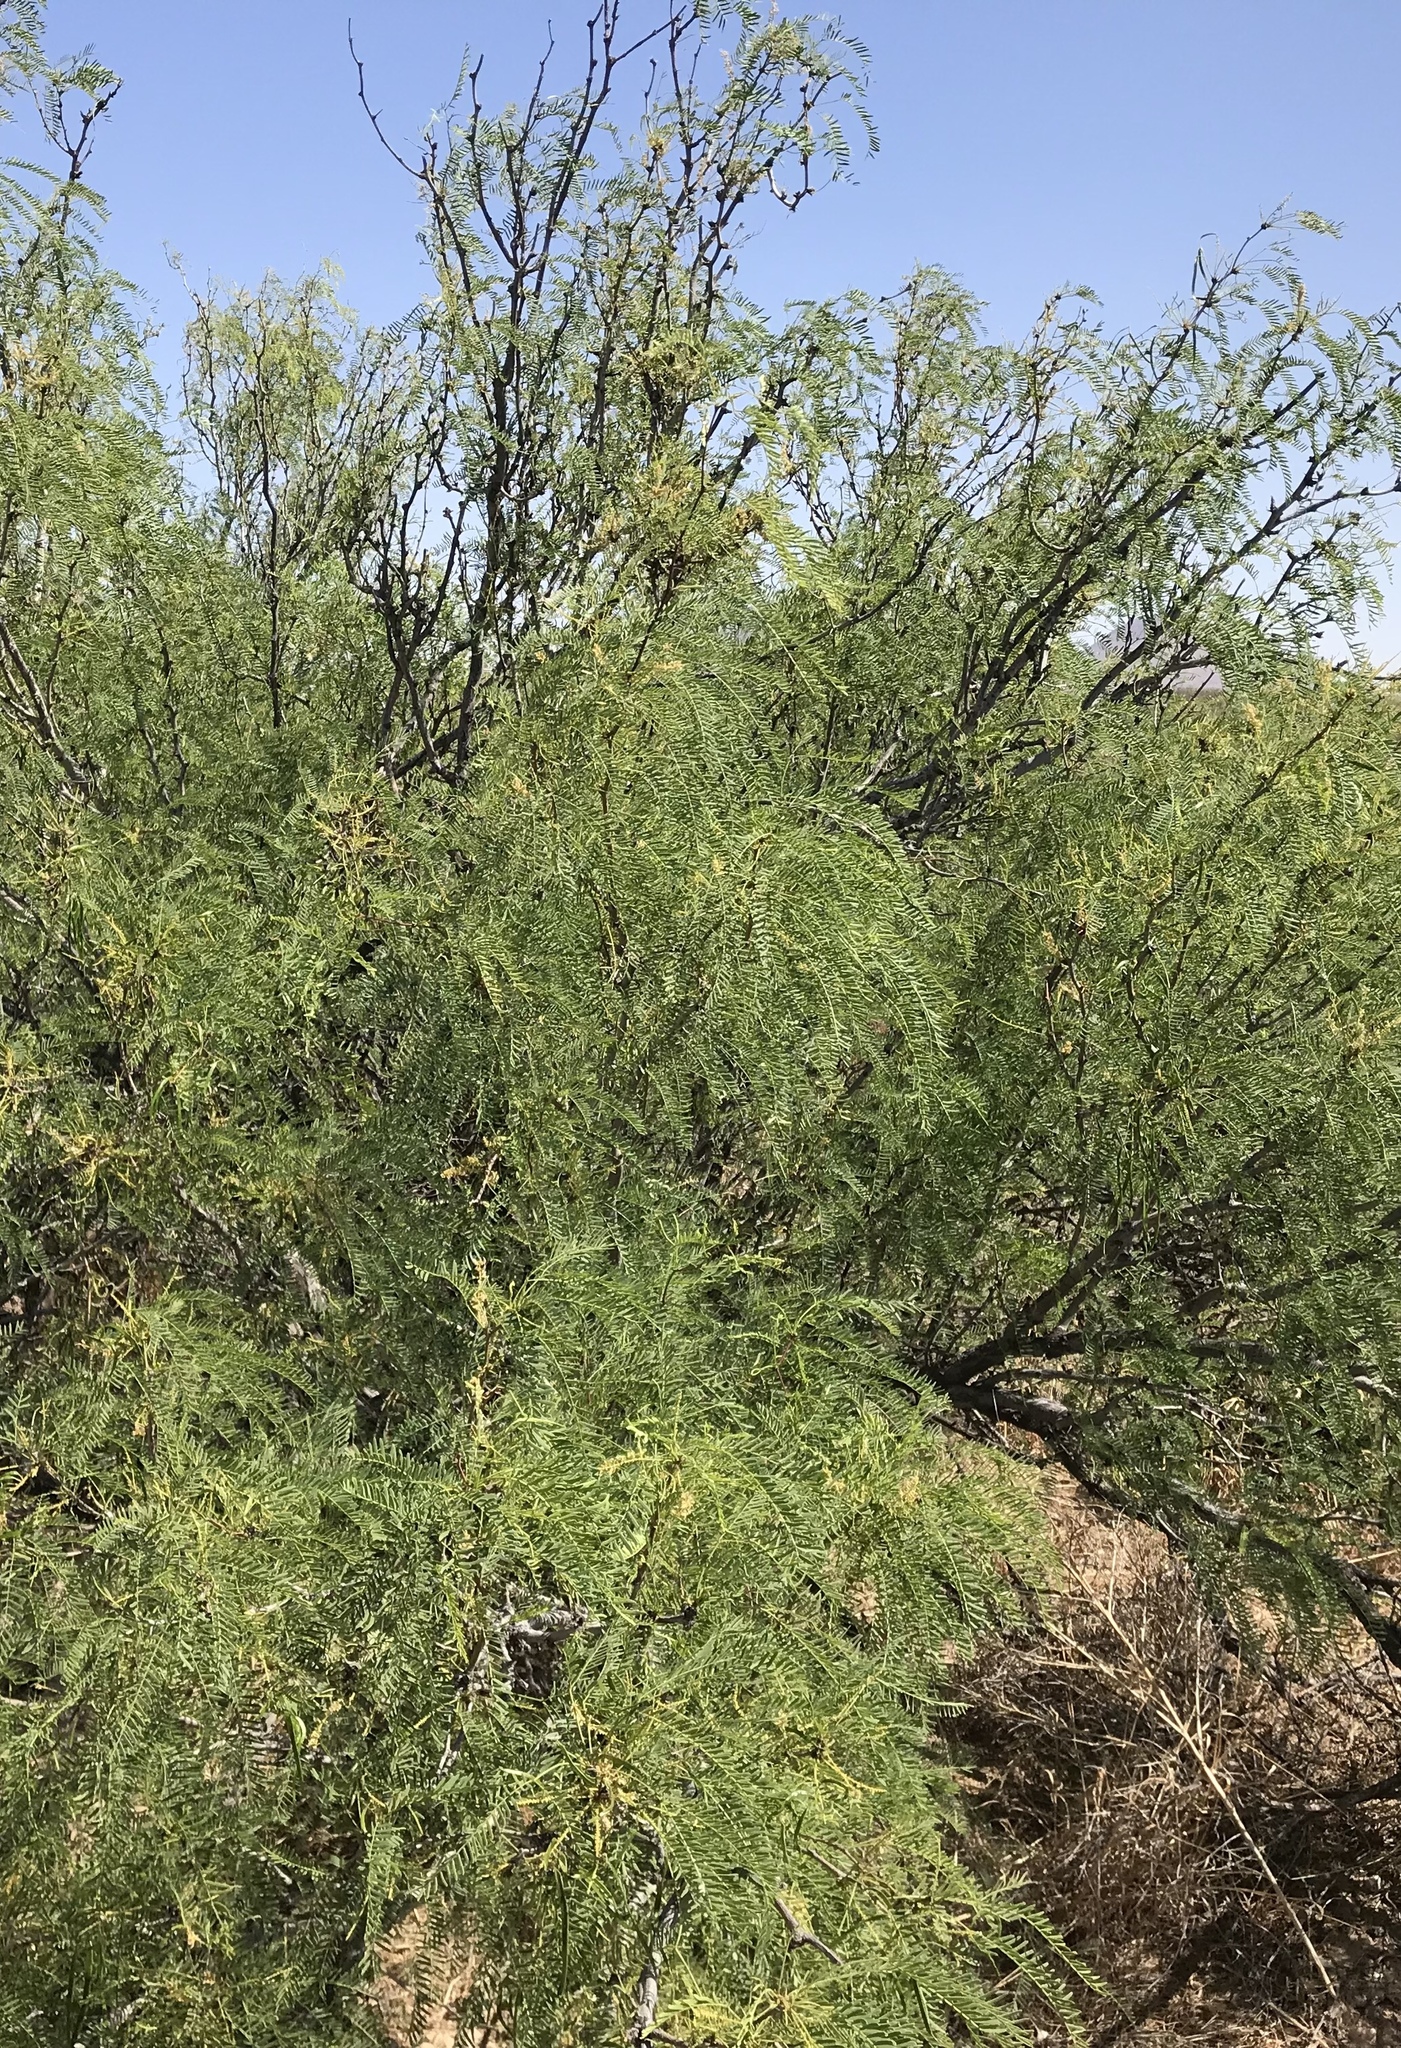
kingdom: Plantae
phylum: Tracheophyta
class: Magnoliopsida
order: Fabales
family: Fabaceae
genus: Prosopis
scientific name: Prosopis glandulosa
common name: Honey mesquite
